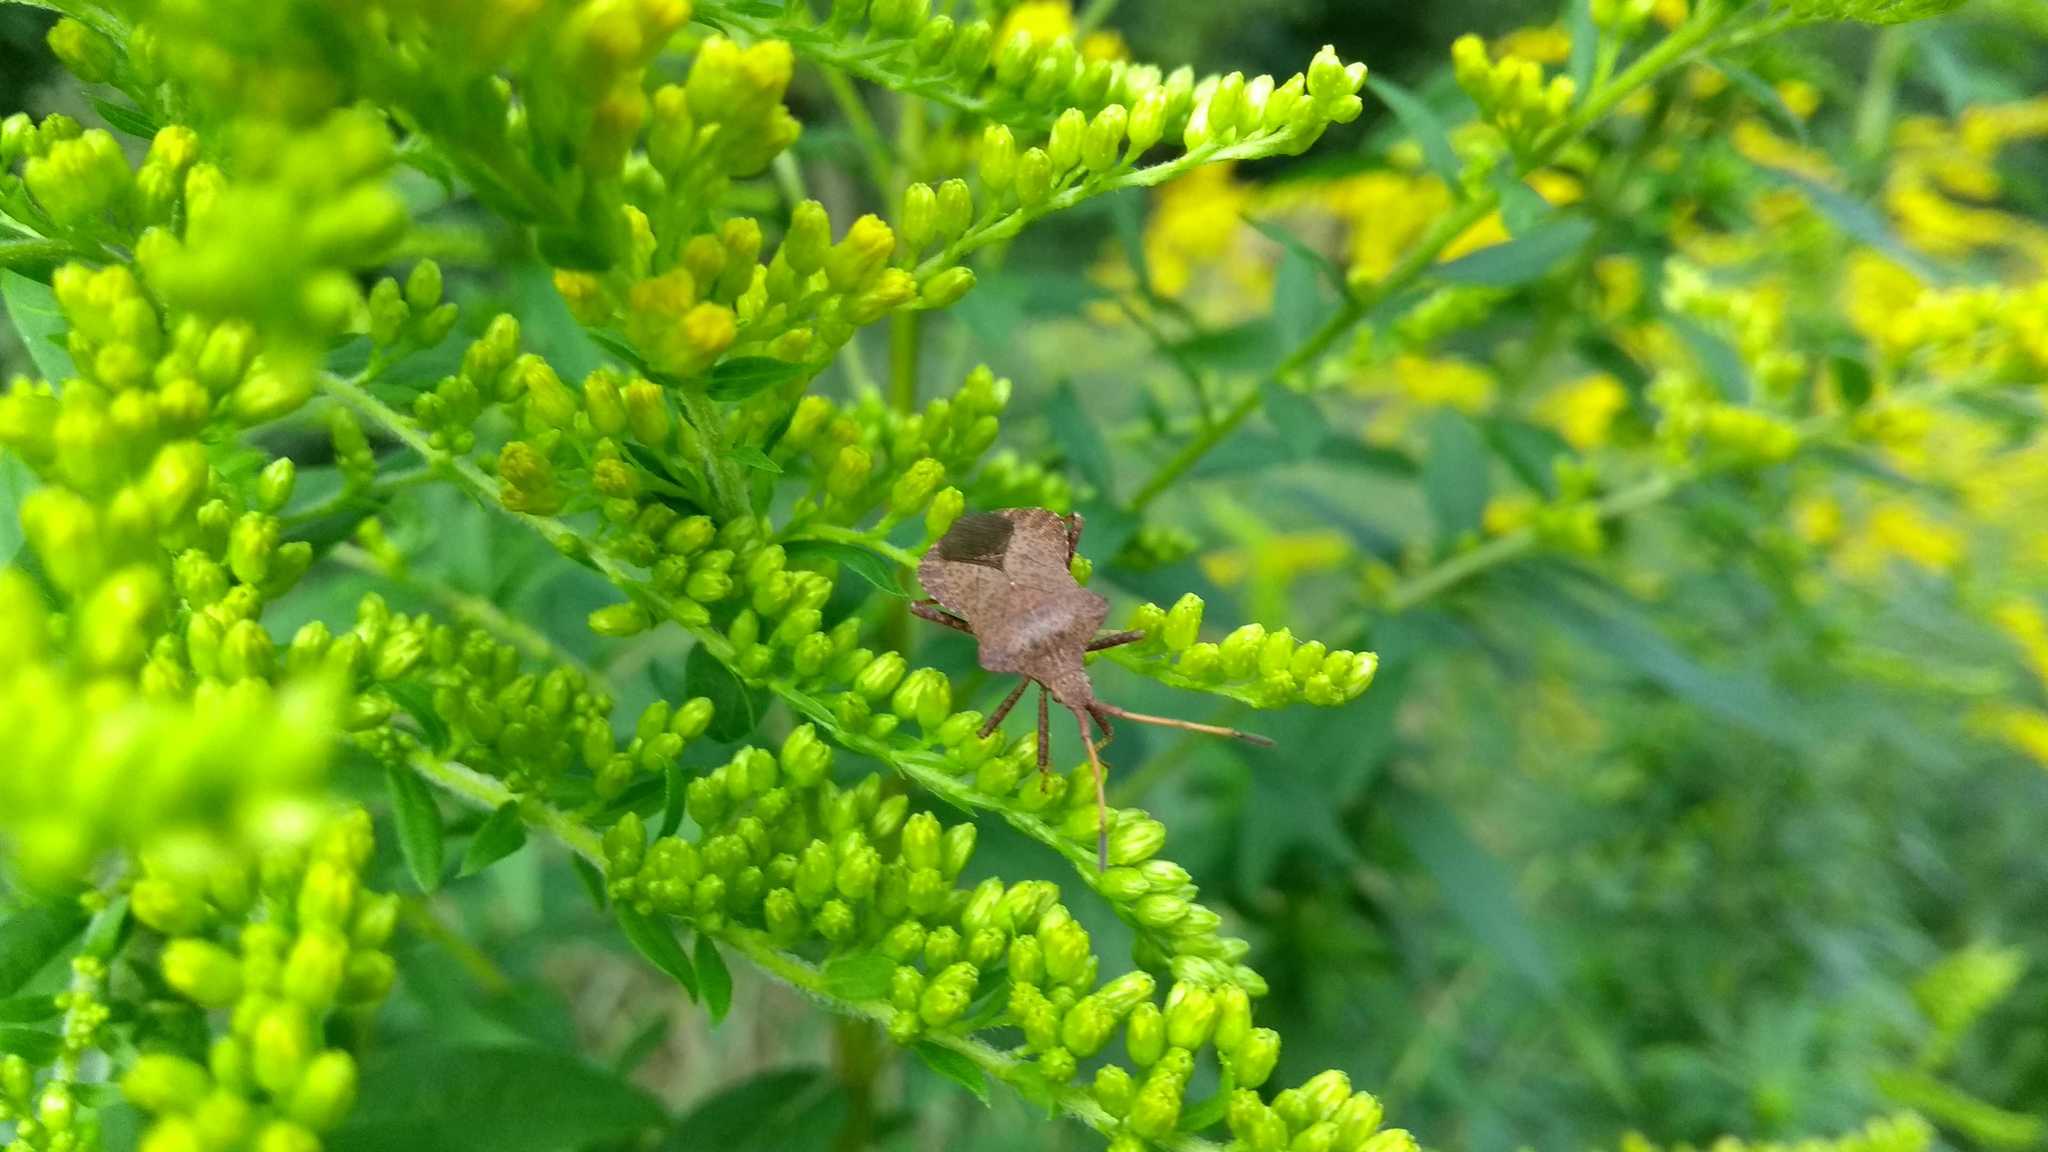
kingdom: Animalia
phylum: Arthropoda
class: Insecta
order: Hemiptera
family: Coreidae
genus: Coreus
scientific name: Coreus marginatus
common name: Dock bug
